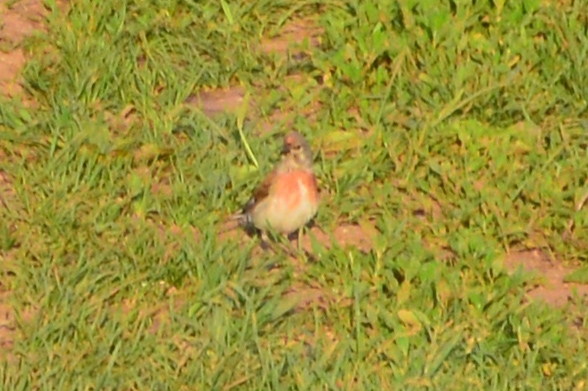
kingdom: Animalia
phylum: Chordata
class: Aves
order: Passeriformes
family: Fringillidae
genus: Linaria
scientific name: Linaria cannabina
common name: Common linnet
